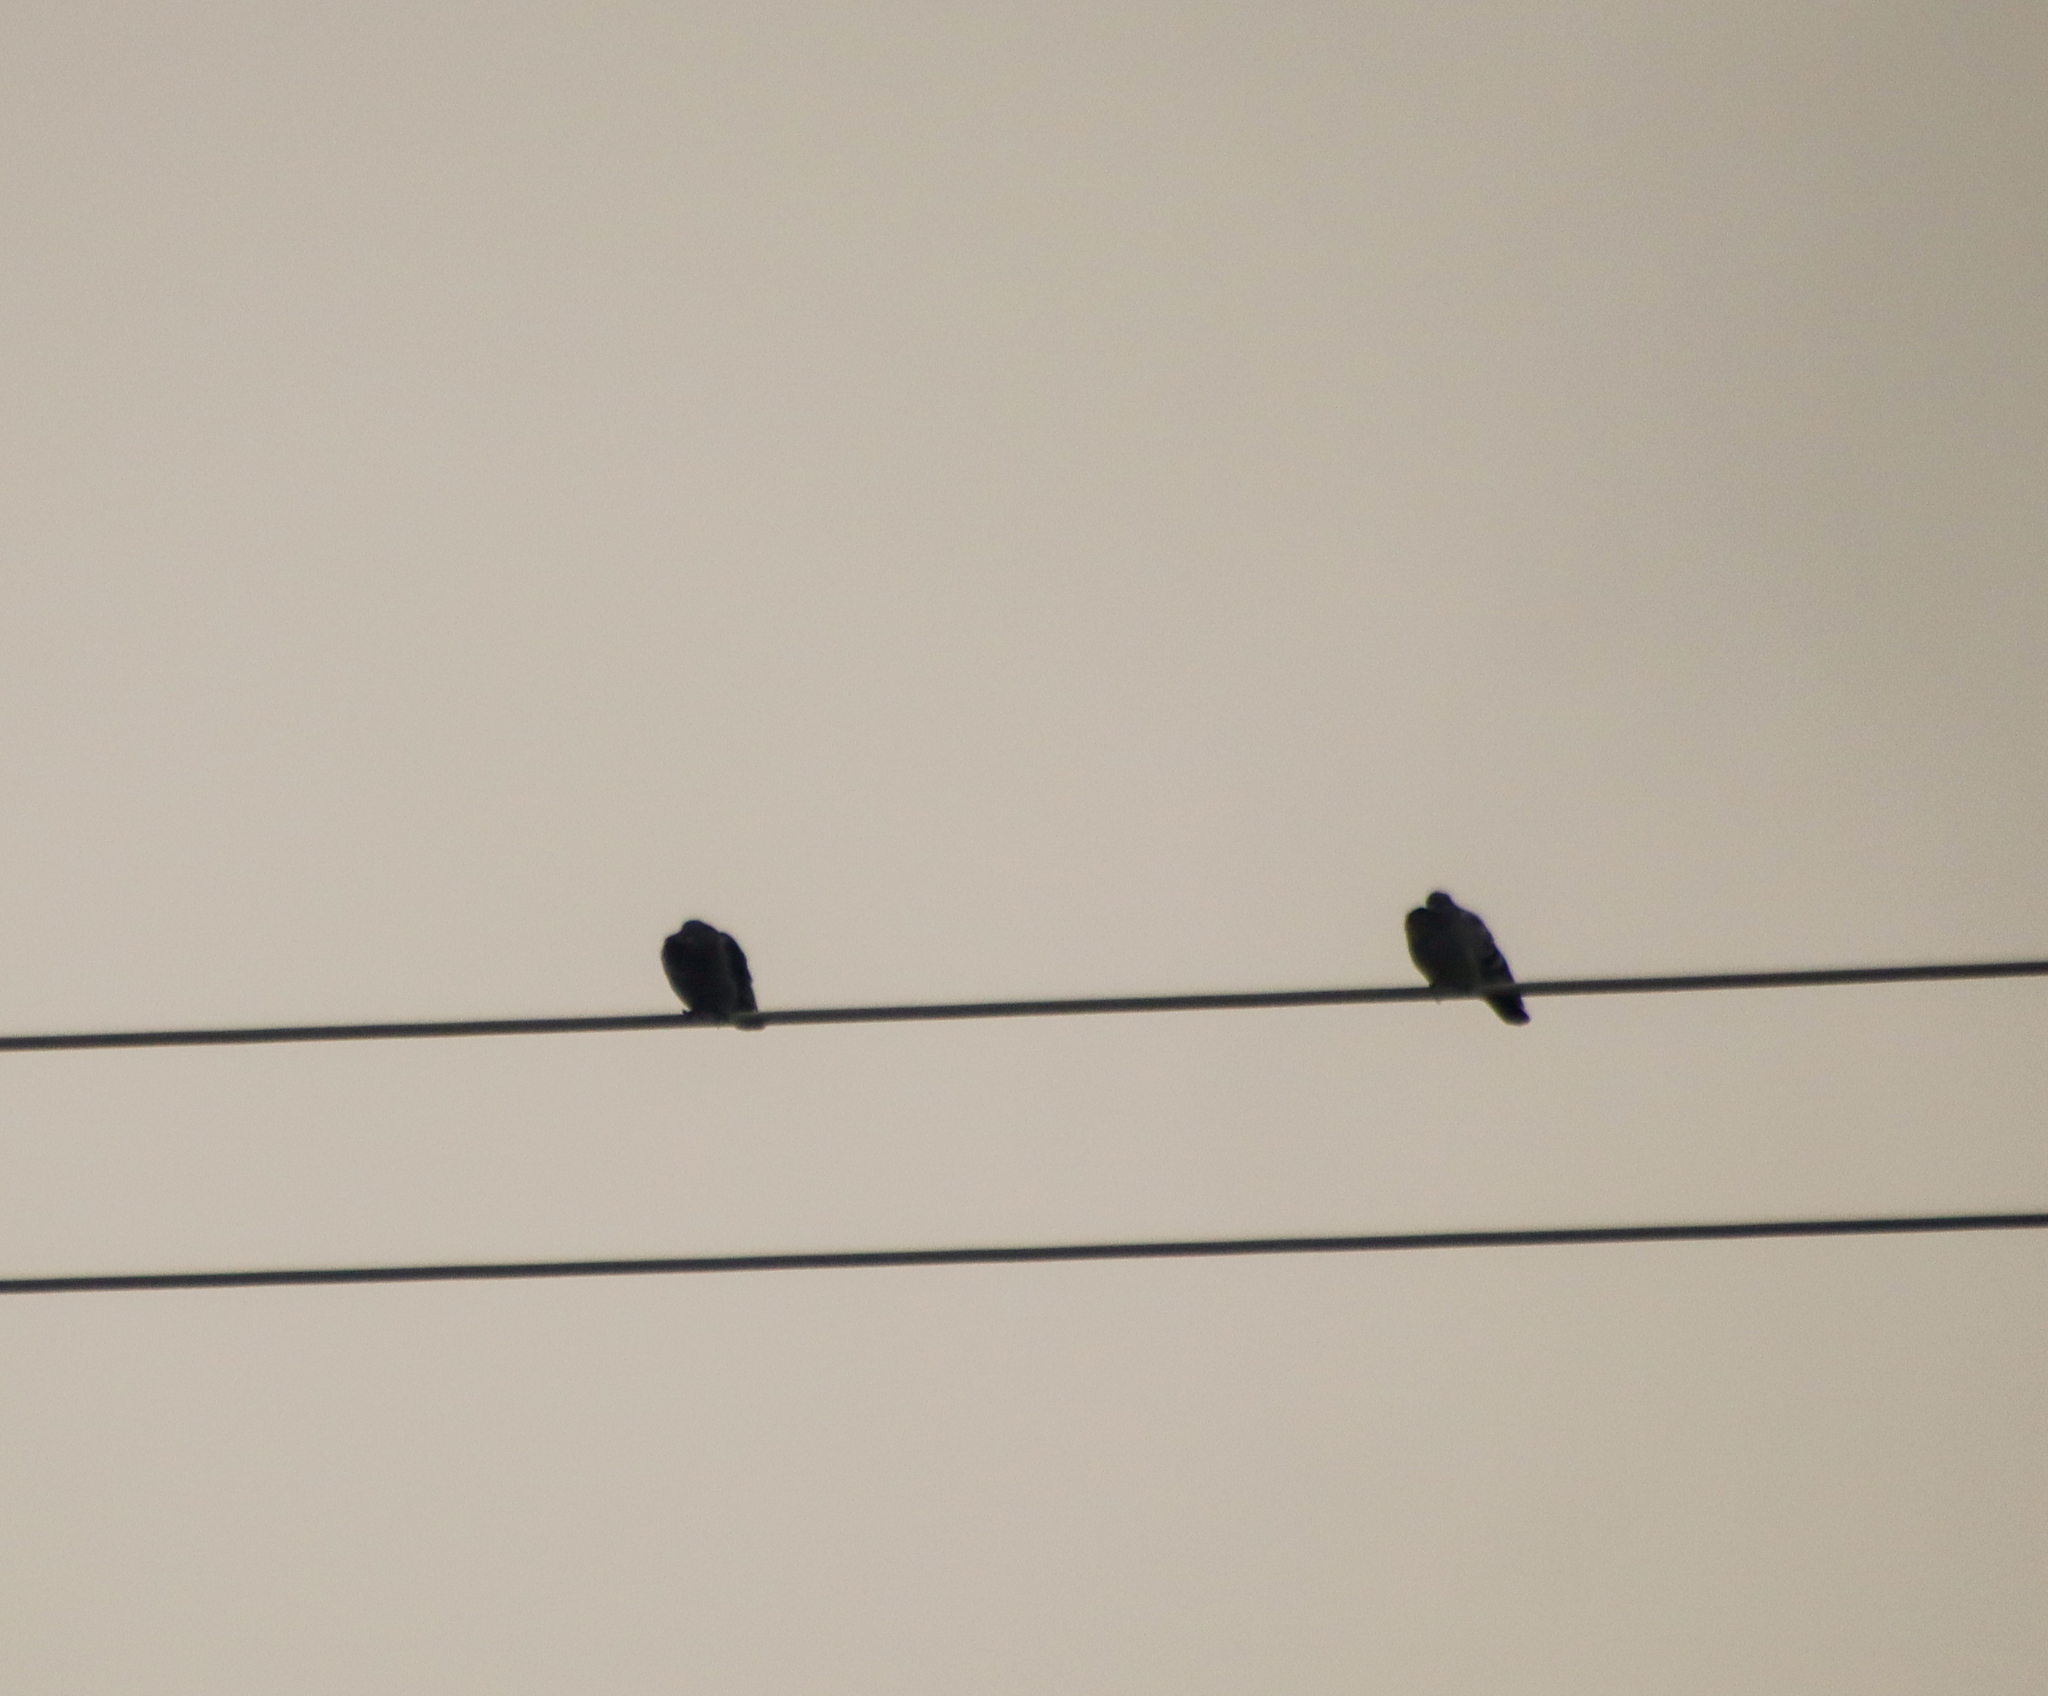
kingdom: Animalia
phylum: Chordata
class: Aves
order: Columbiformes
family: Columbidae
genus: Columba
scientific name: Columba livia
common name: Rock pigeon
